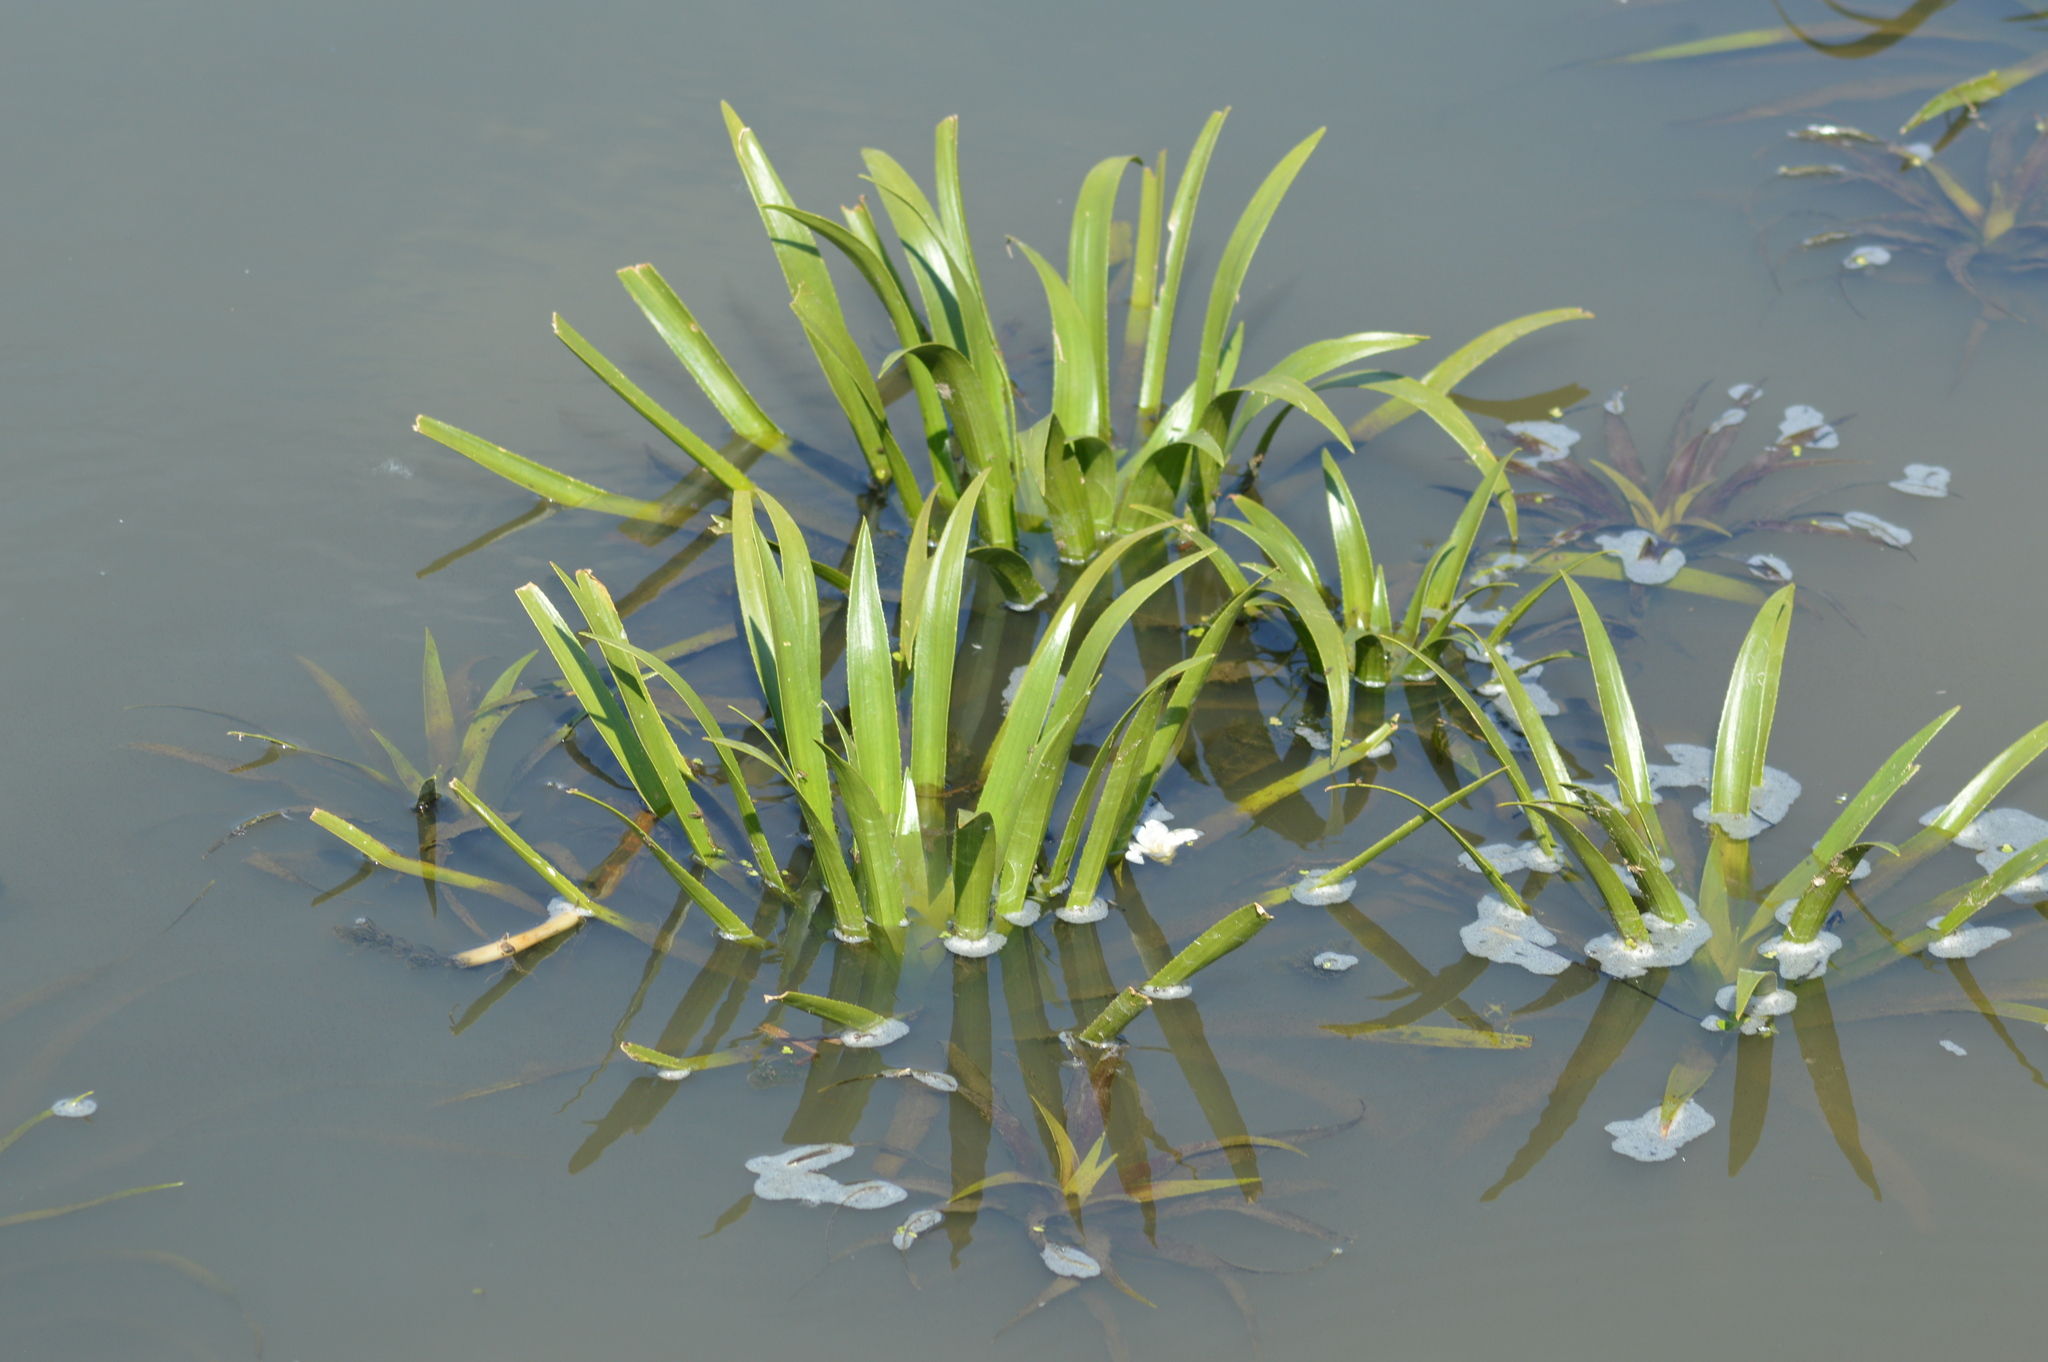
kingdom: Plantae
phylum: Tracheophyta
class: Liliopsida
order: Alismatales
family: Hydrocharitaceae
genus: Stratiotes
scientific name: Stratiotes aloides
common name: Water-soldier
